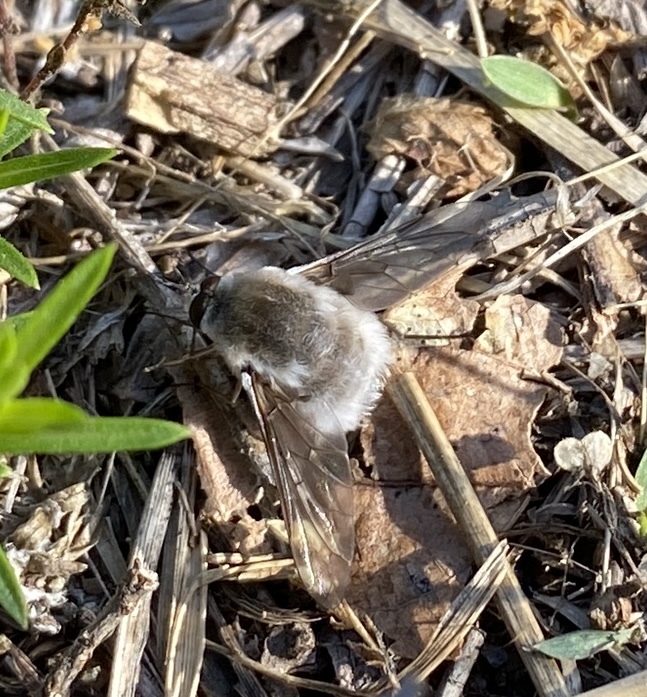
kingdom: Animalia
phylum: Arthropoda
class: Insecta
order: Diptera
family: Bombyliidae
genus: Bombylius
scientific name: Bombylius incanus
